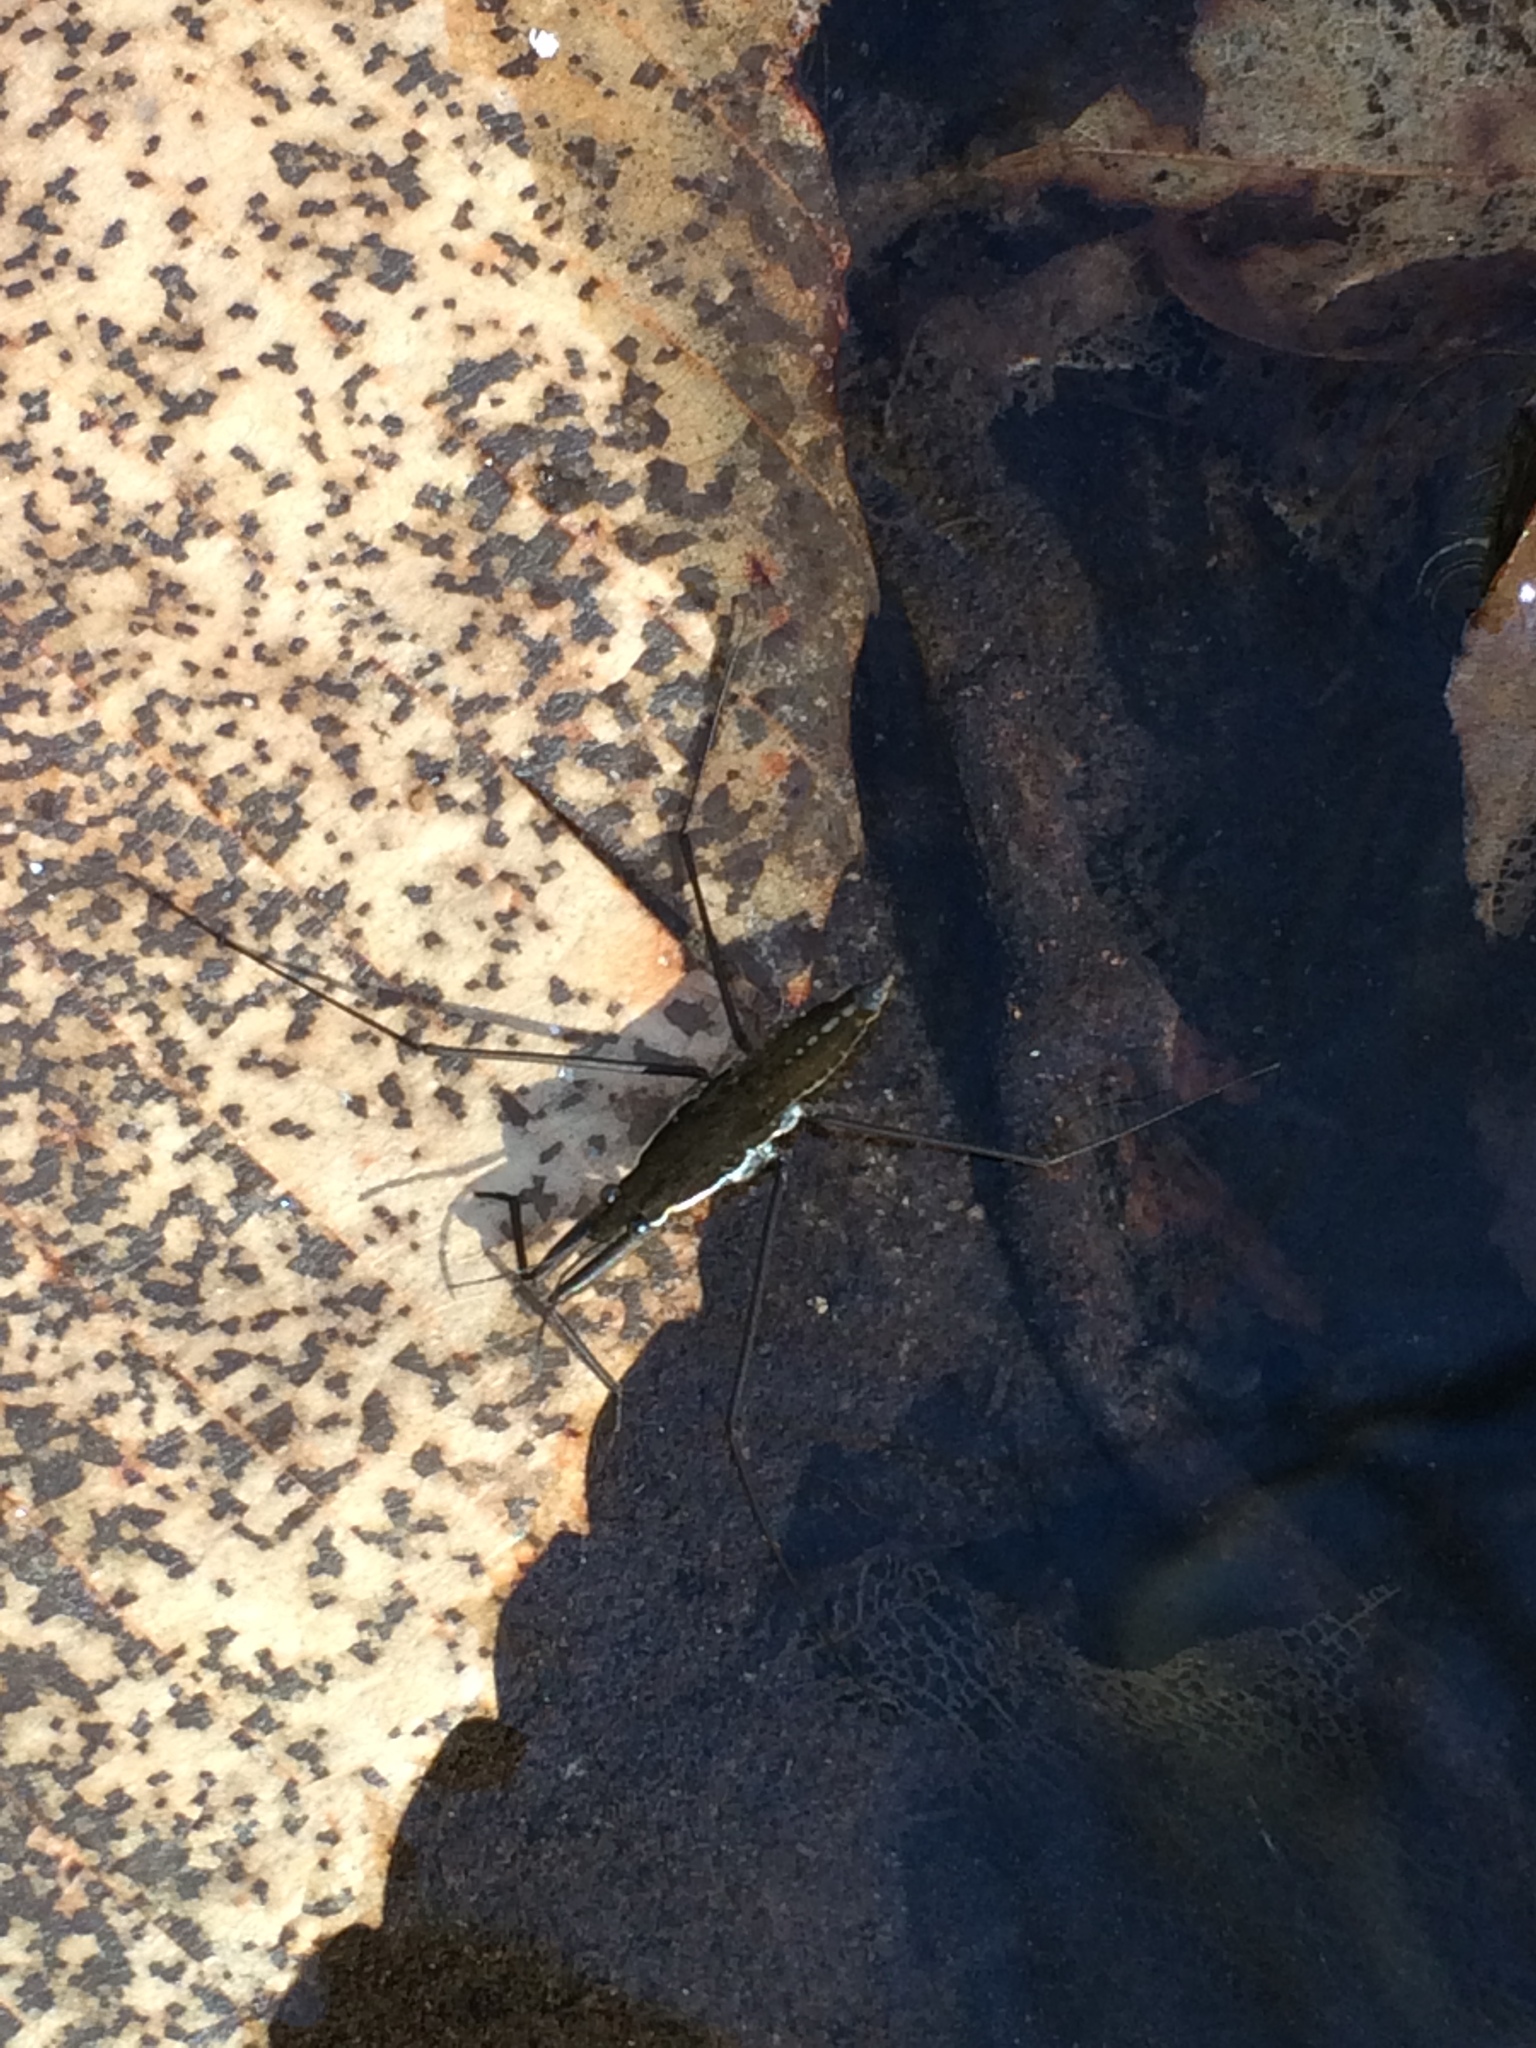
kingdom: Animalia
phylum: Arthropoda
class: Insecta
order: Hemiptera
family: Gerridae
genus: Aquarius
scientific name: Aquarius remigis
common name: Common water strider
